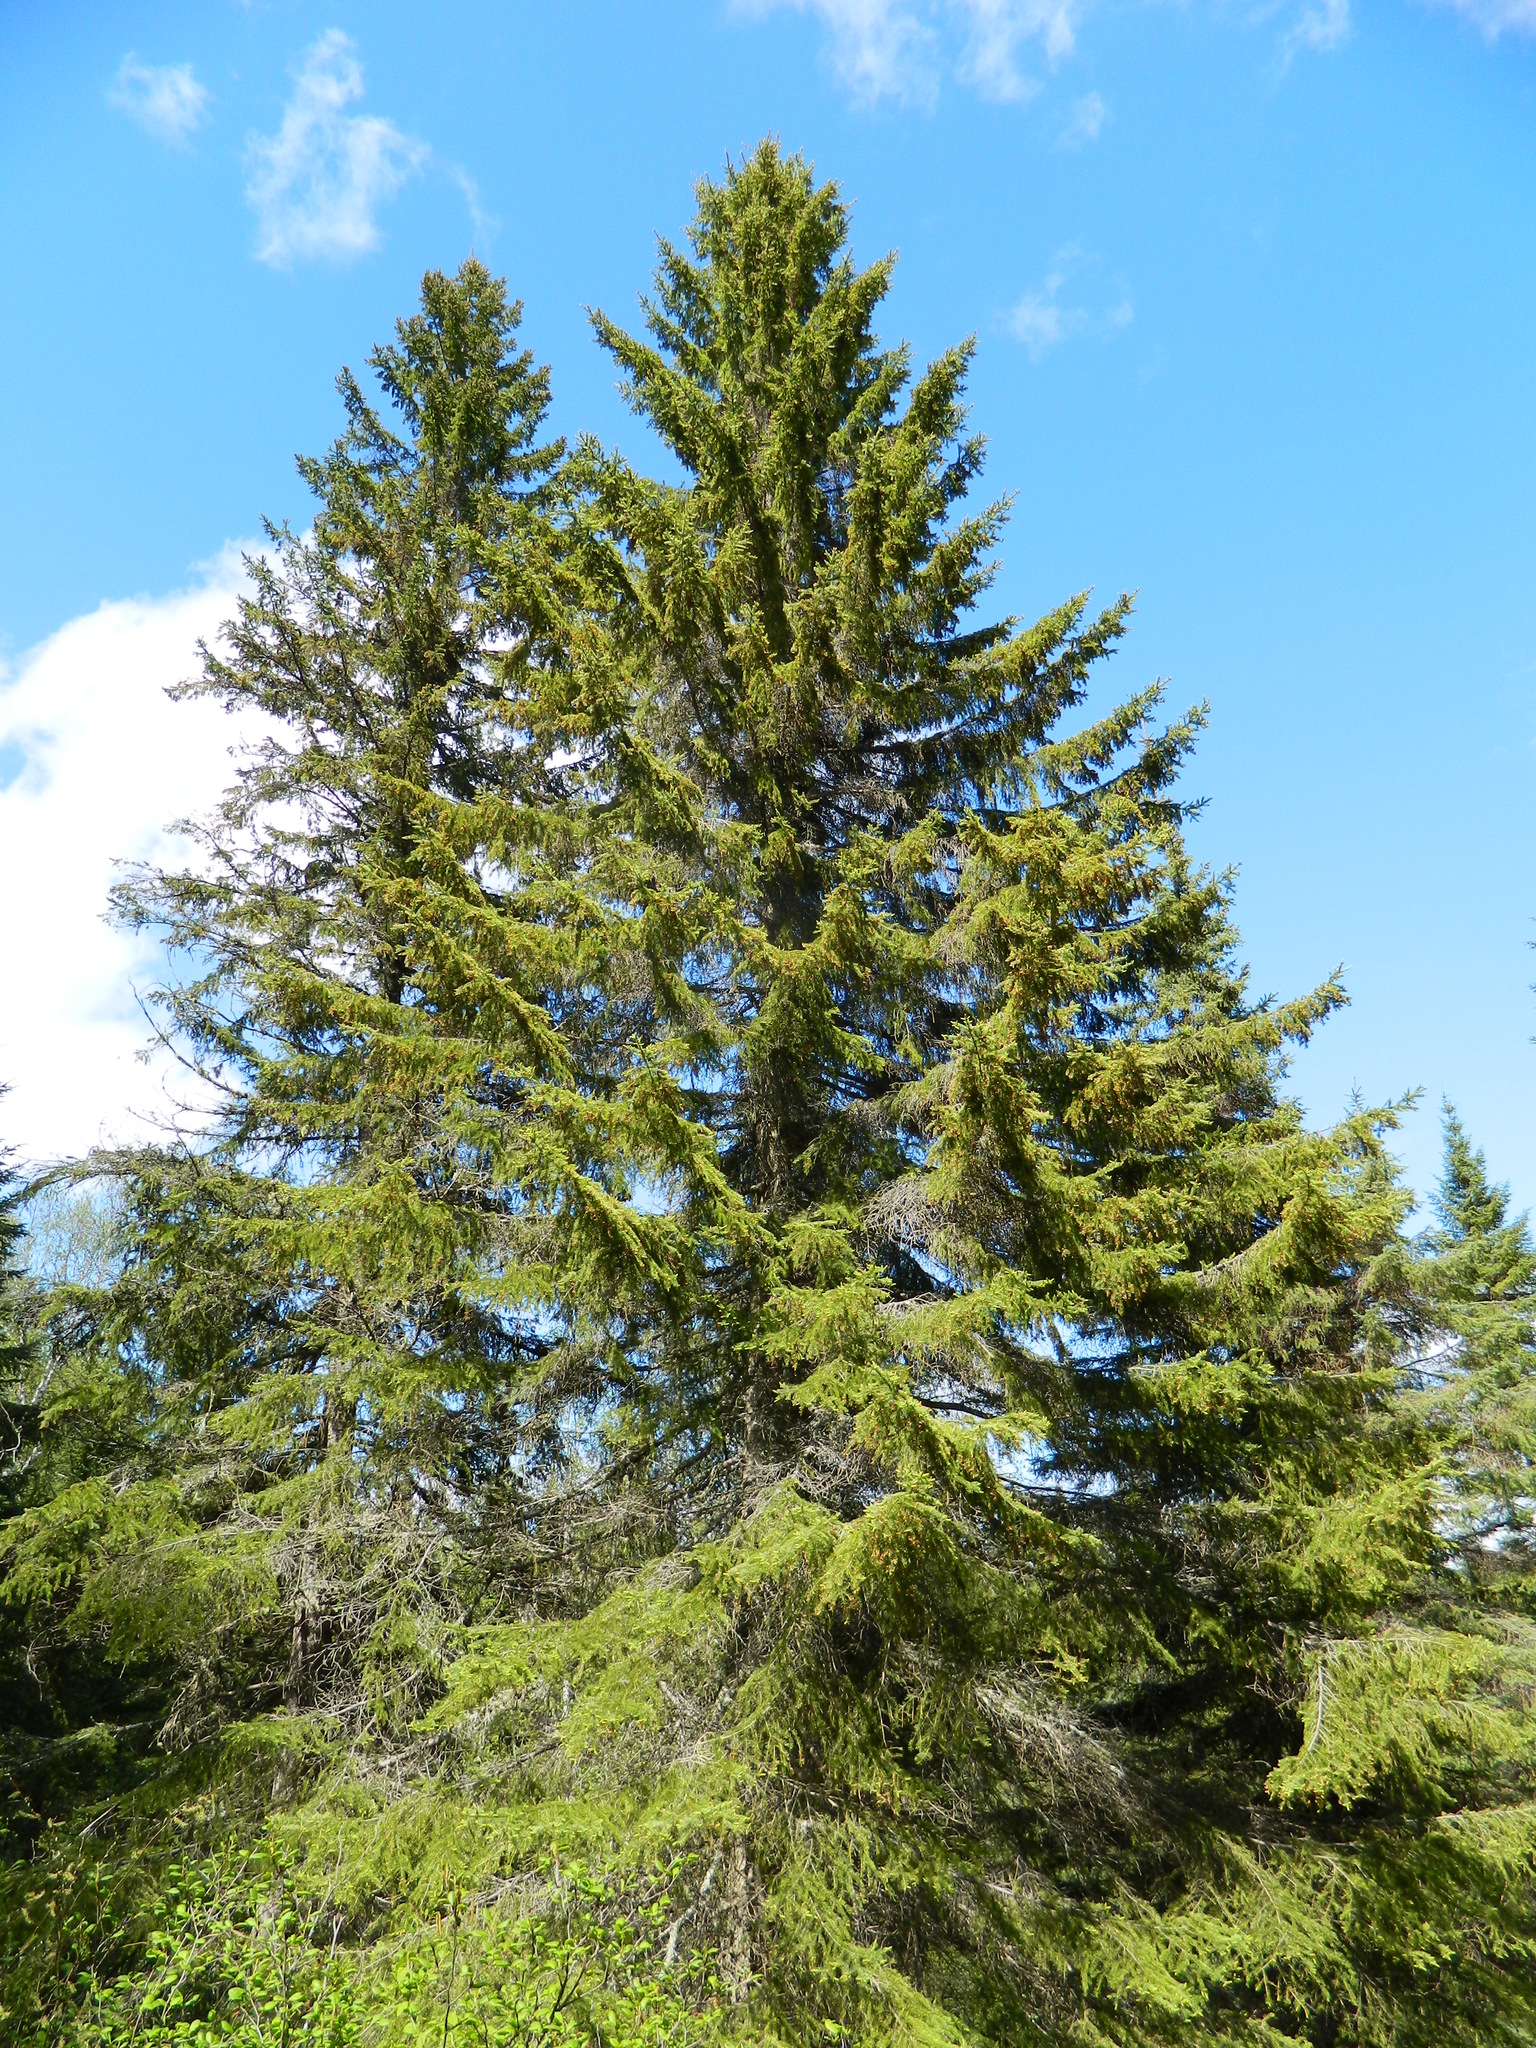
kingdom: Plantae
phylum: Tracheophyta
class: Pinopsida
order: Pinales
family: Pinaceae
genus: Picea
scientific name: Picea glauca
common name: White spruce
